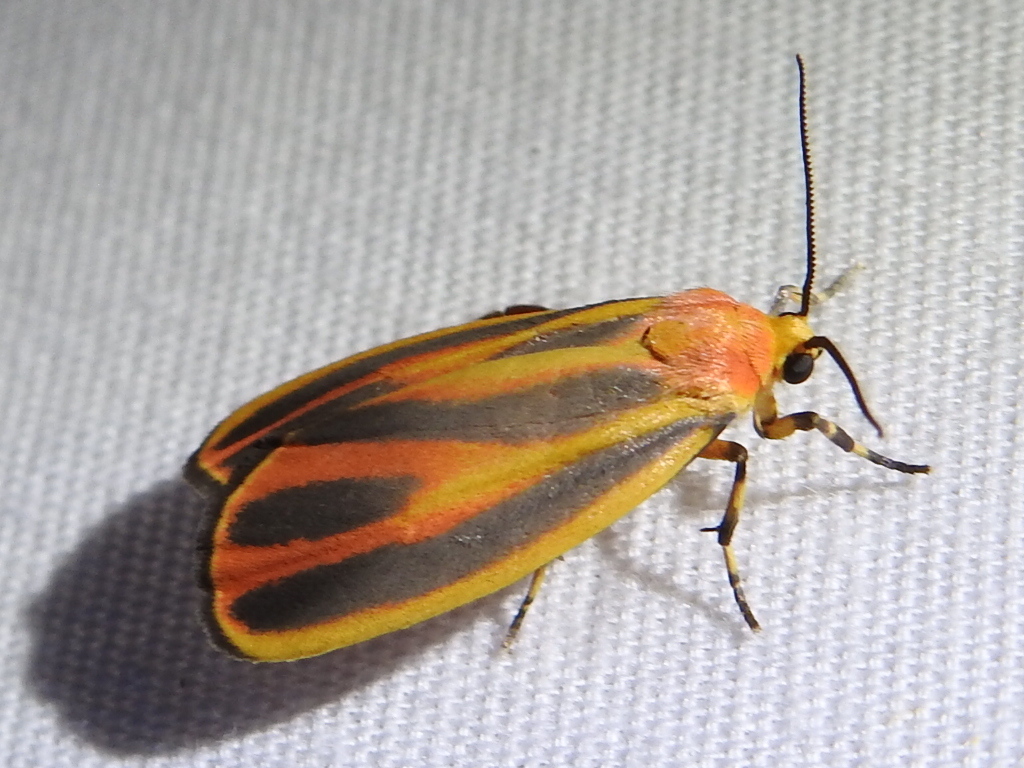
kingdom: Animalia
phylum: Arthropoda
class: Insecta
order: Lepidoptera
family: Erebidae
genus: Hypoprepia
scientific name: Hypoprepia miniata
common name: Scarlet-winged lichen moth
